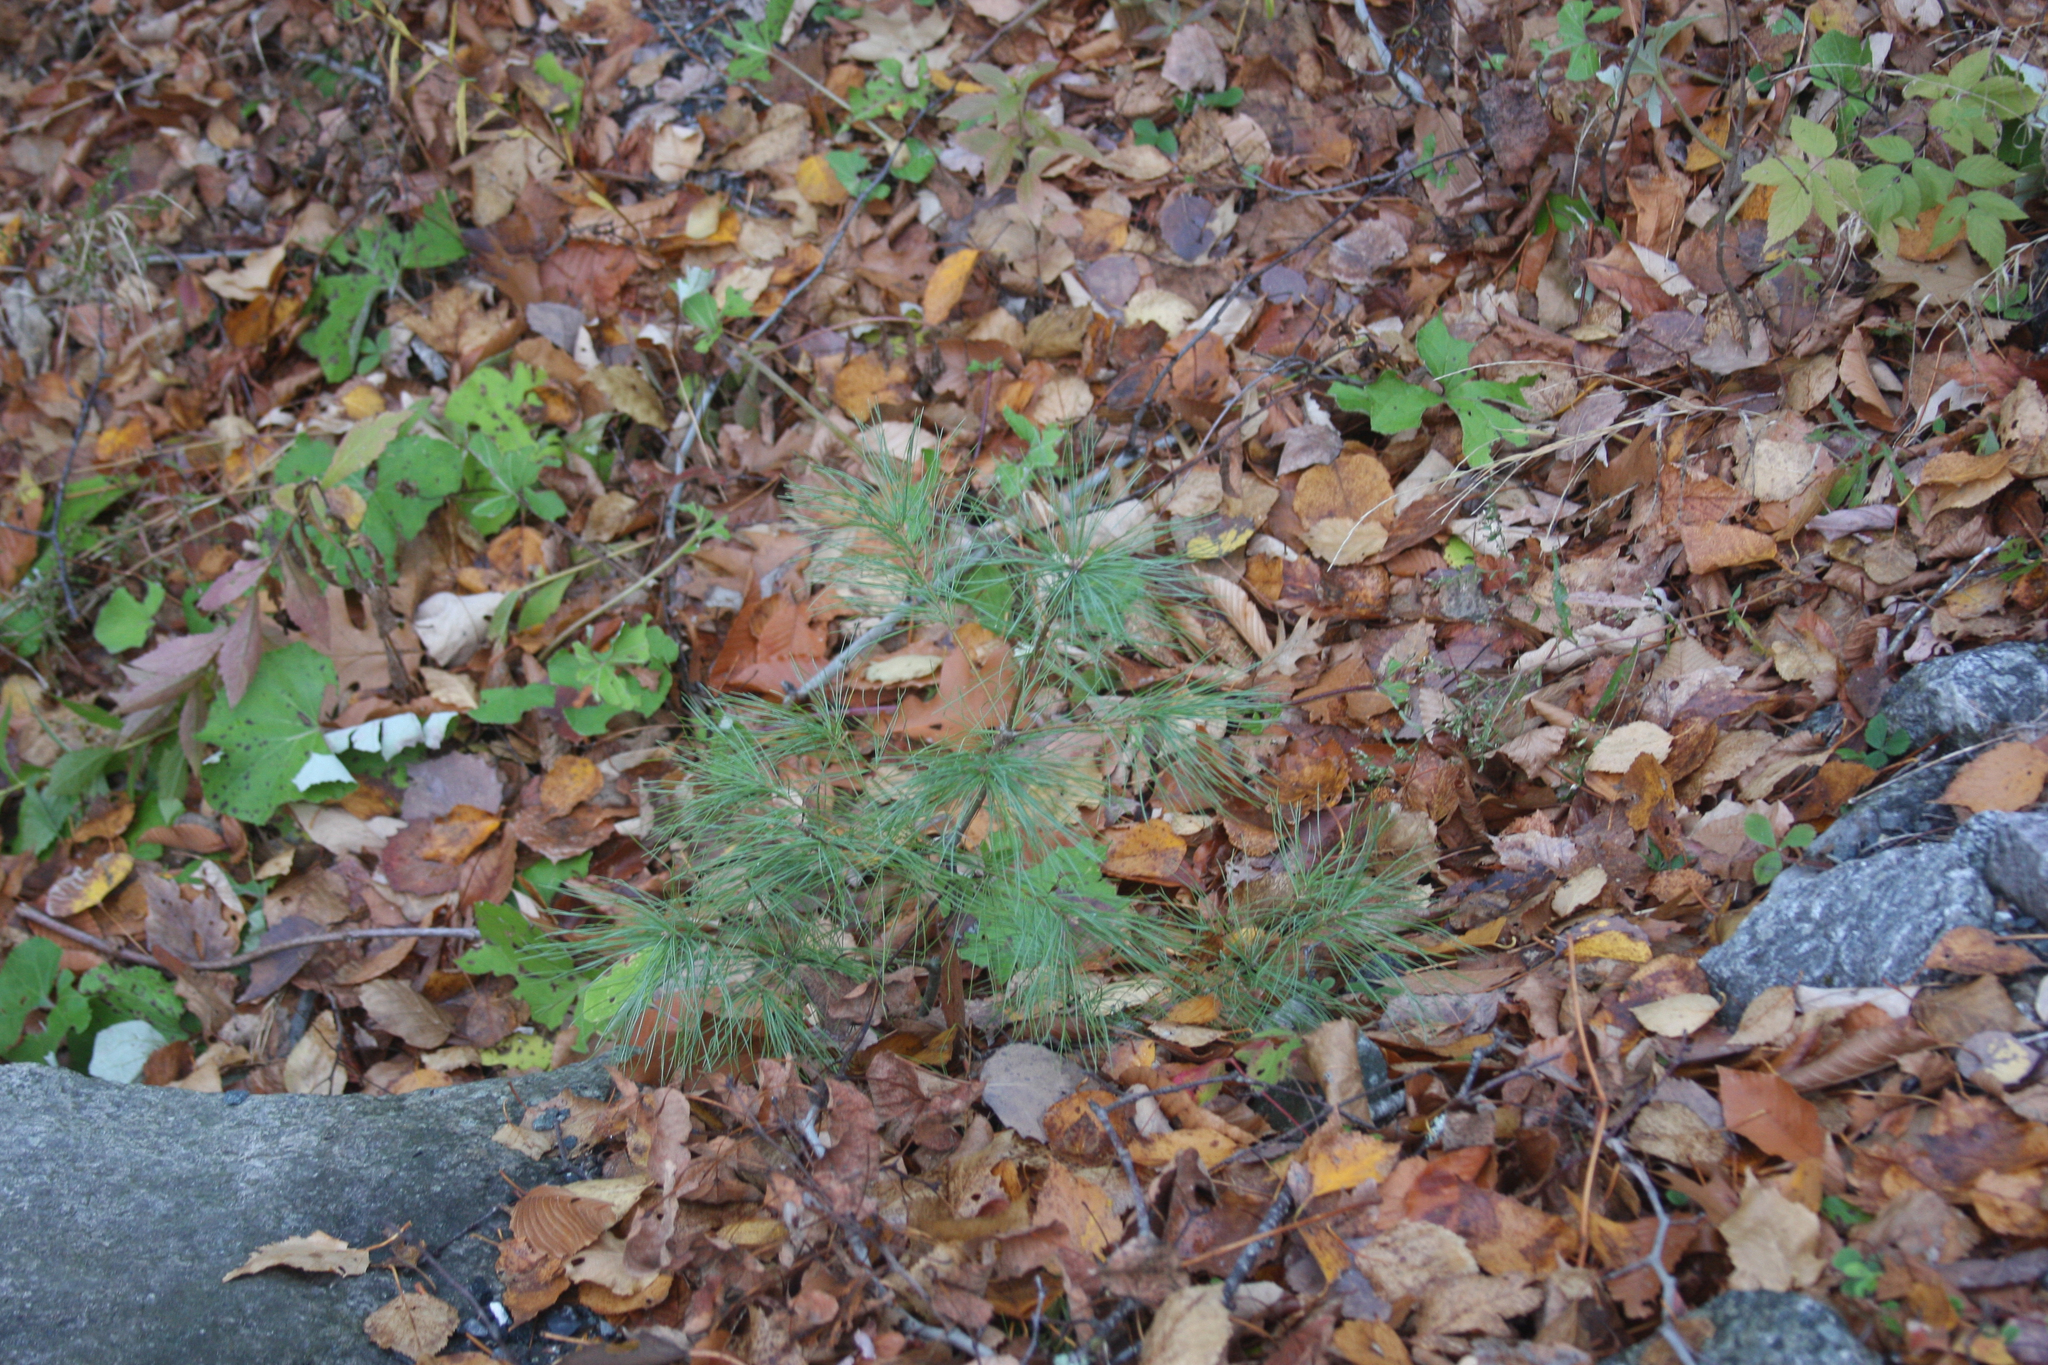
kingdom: Plantae
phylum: Tracheophyta
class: Pinopsida
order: Pinales
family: Pinaceae
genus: Pinus
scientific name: Pinus strobus
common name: Weymouth pine
